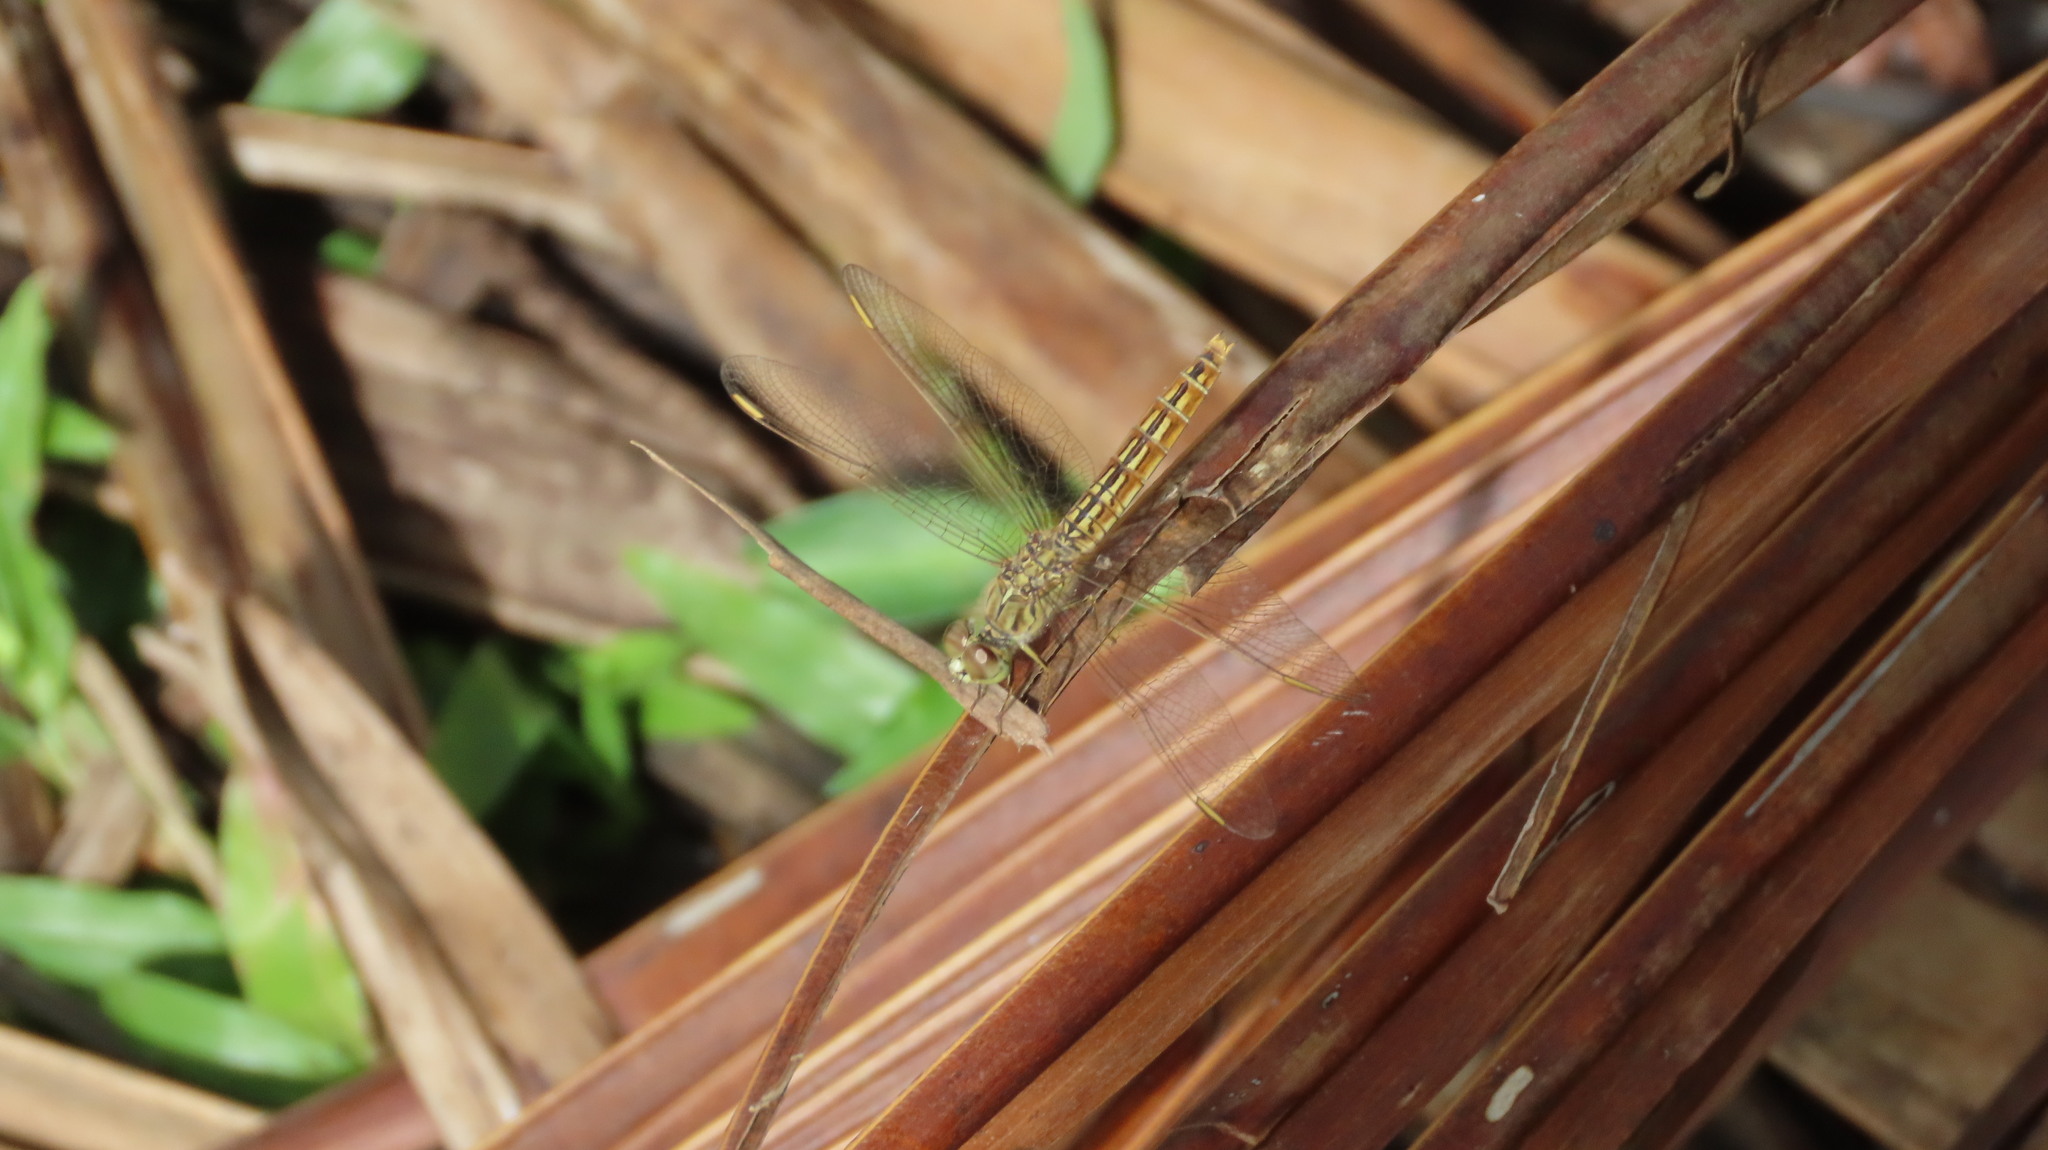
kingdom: Animalia
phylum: Arthropoda
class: Insecta
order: Odonata
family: Libellulidae
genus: Brachythemis
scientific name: Brachythemis contaminata
